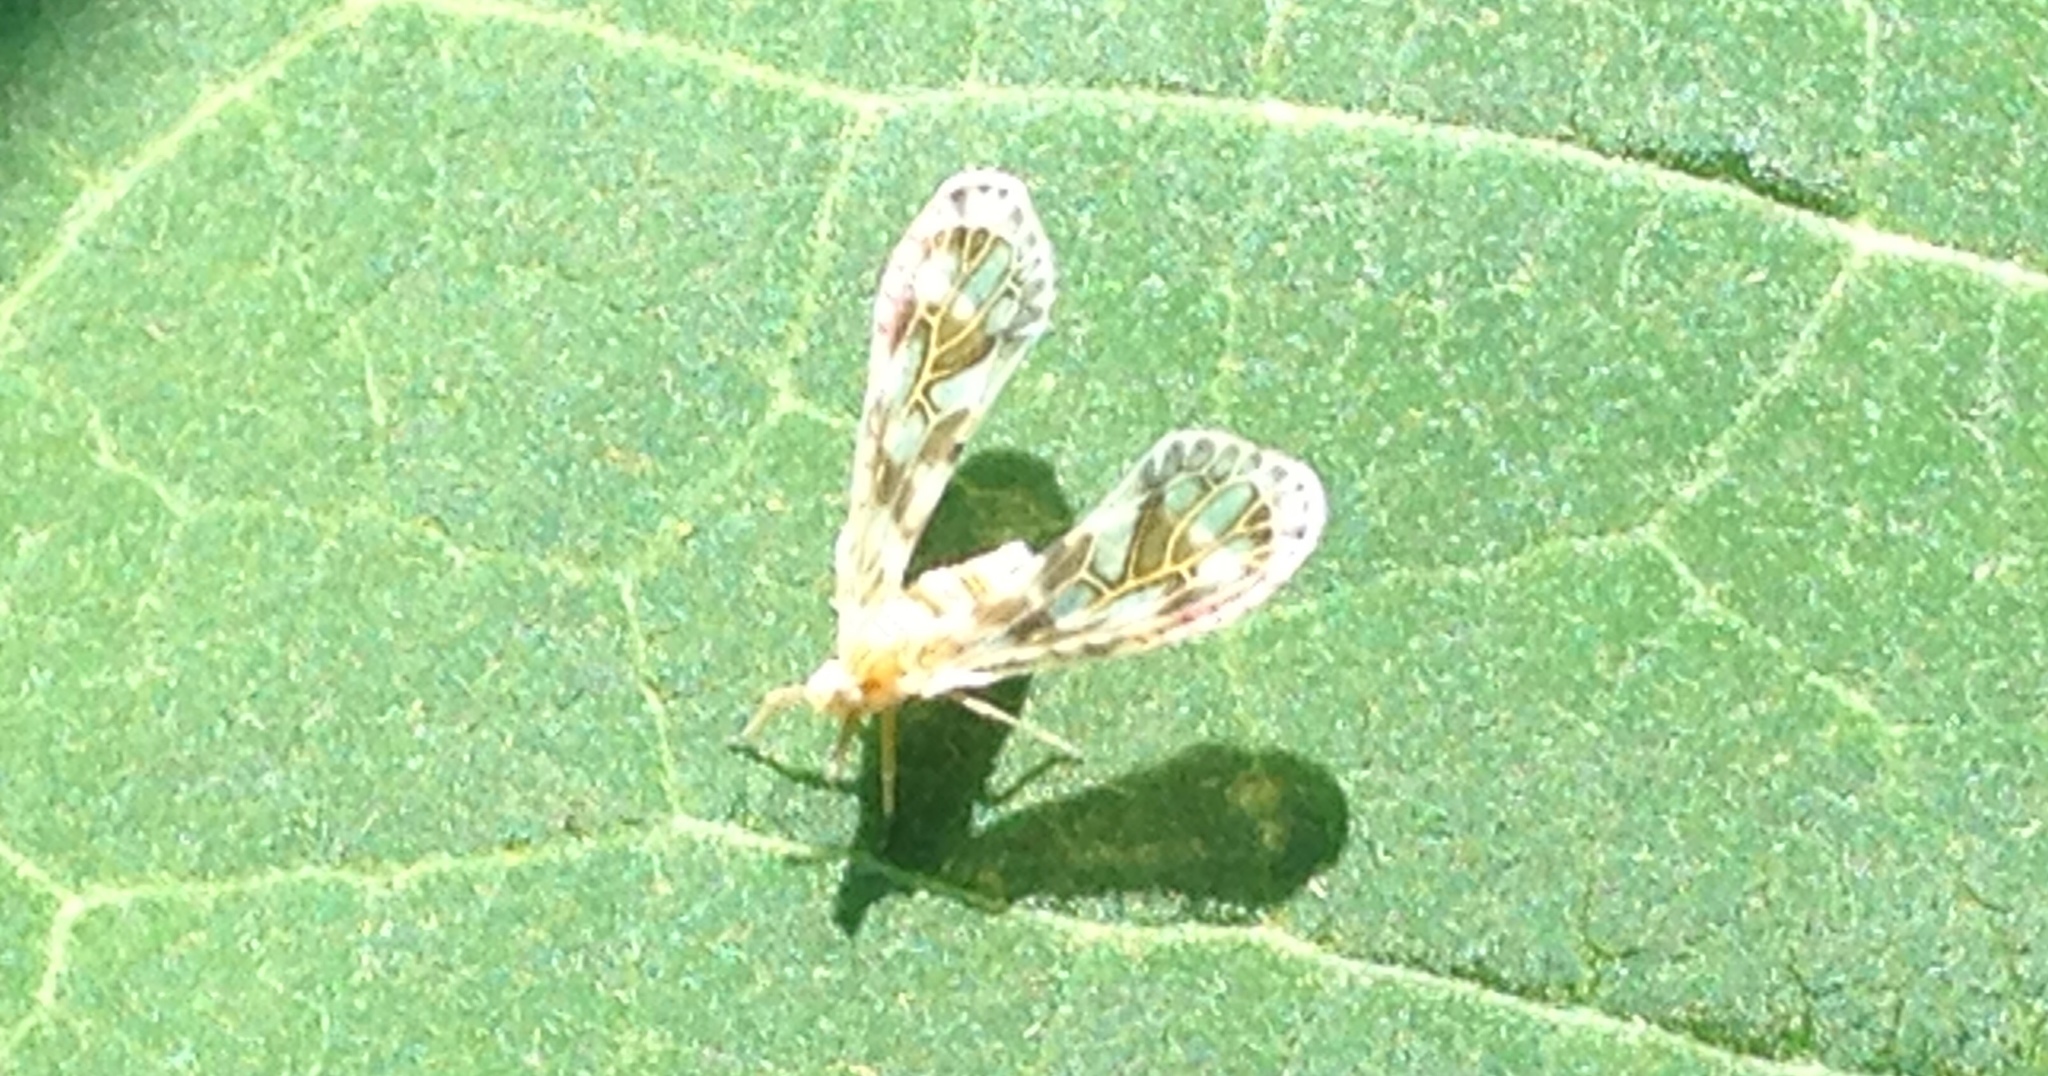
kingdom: Animalia
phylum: Arthropoda
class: Insecta
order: Hemiptera
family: Derbidae
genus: Anotia
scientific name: Anotia kirkaldyi
